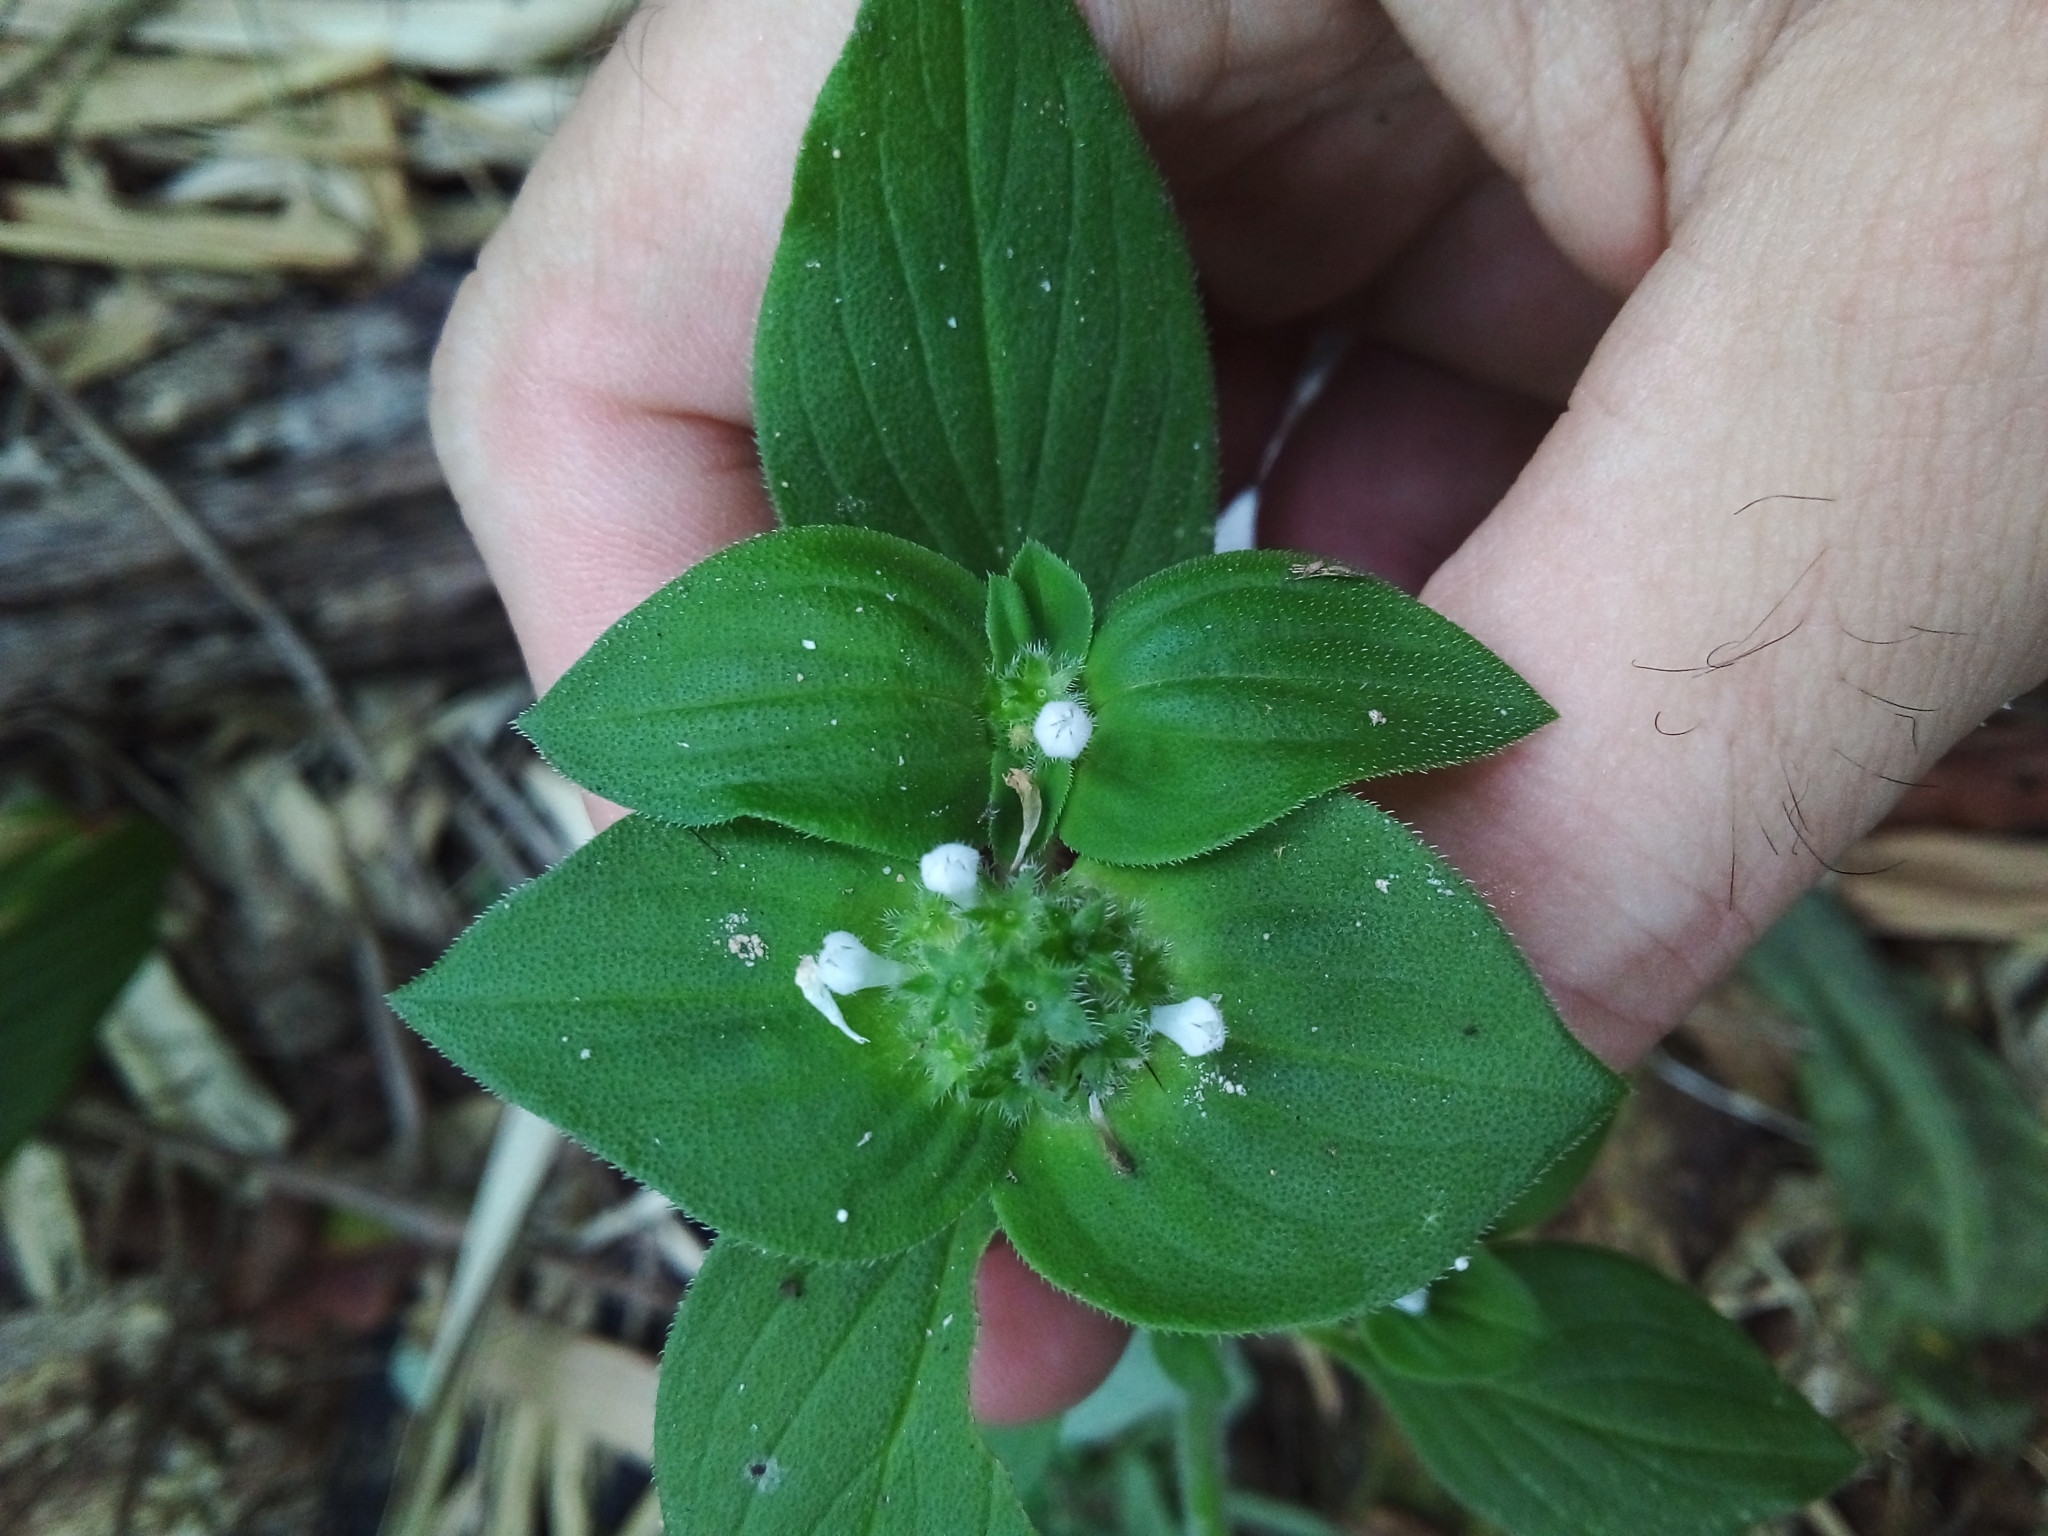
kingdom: Plantae
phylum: Tracheophyta
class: Magnoliopsida
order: Gentianales
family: Rubiaceae
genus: Richardia
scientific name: Richardia brasiliensis
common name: Tropical mexican clover
